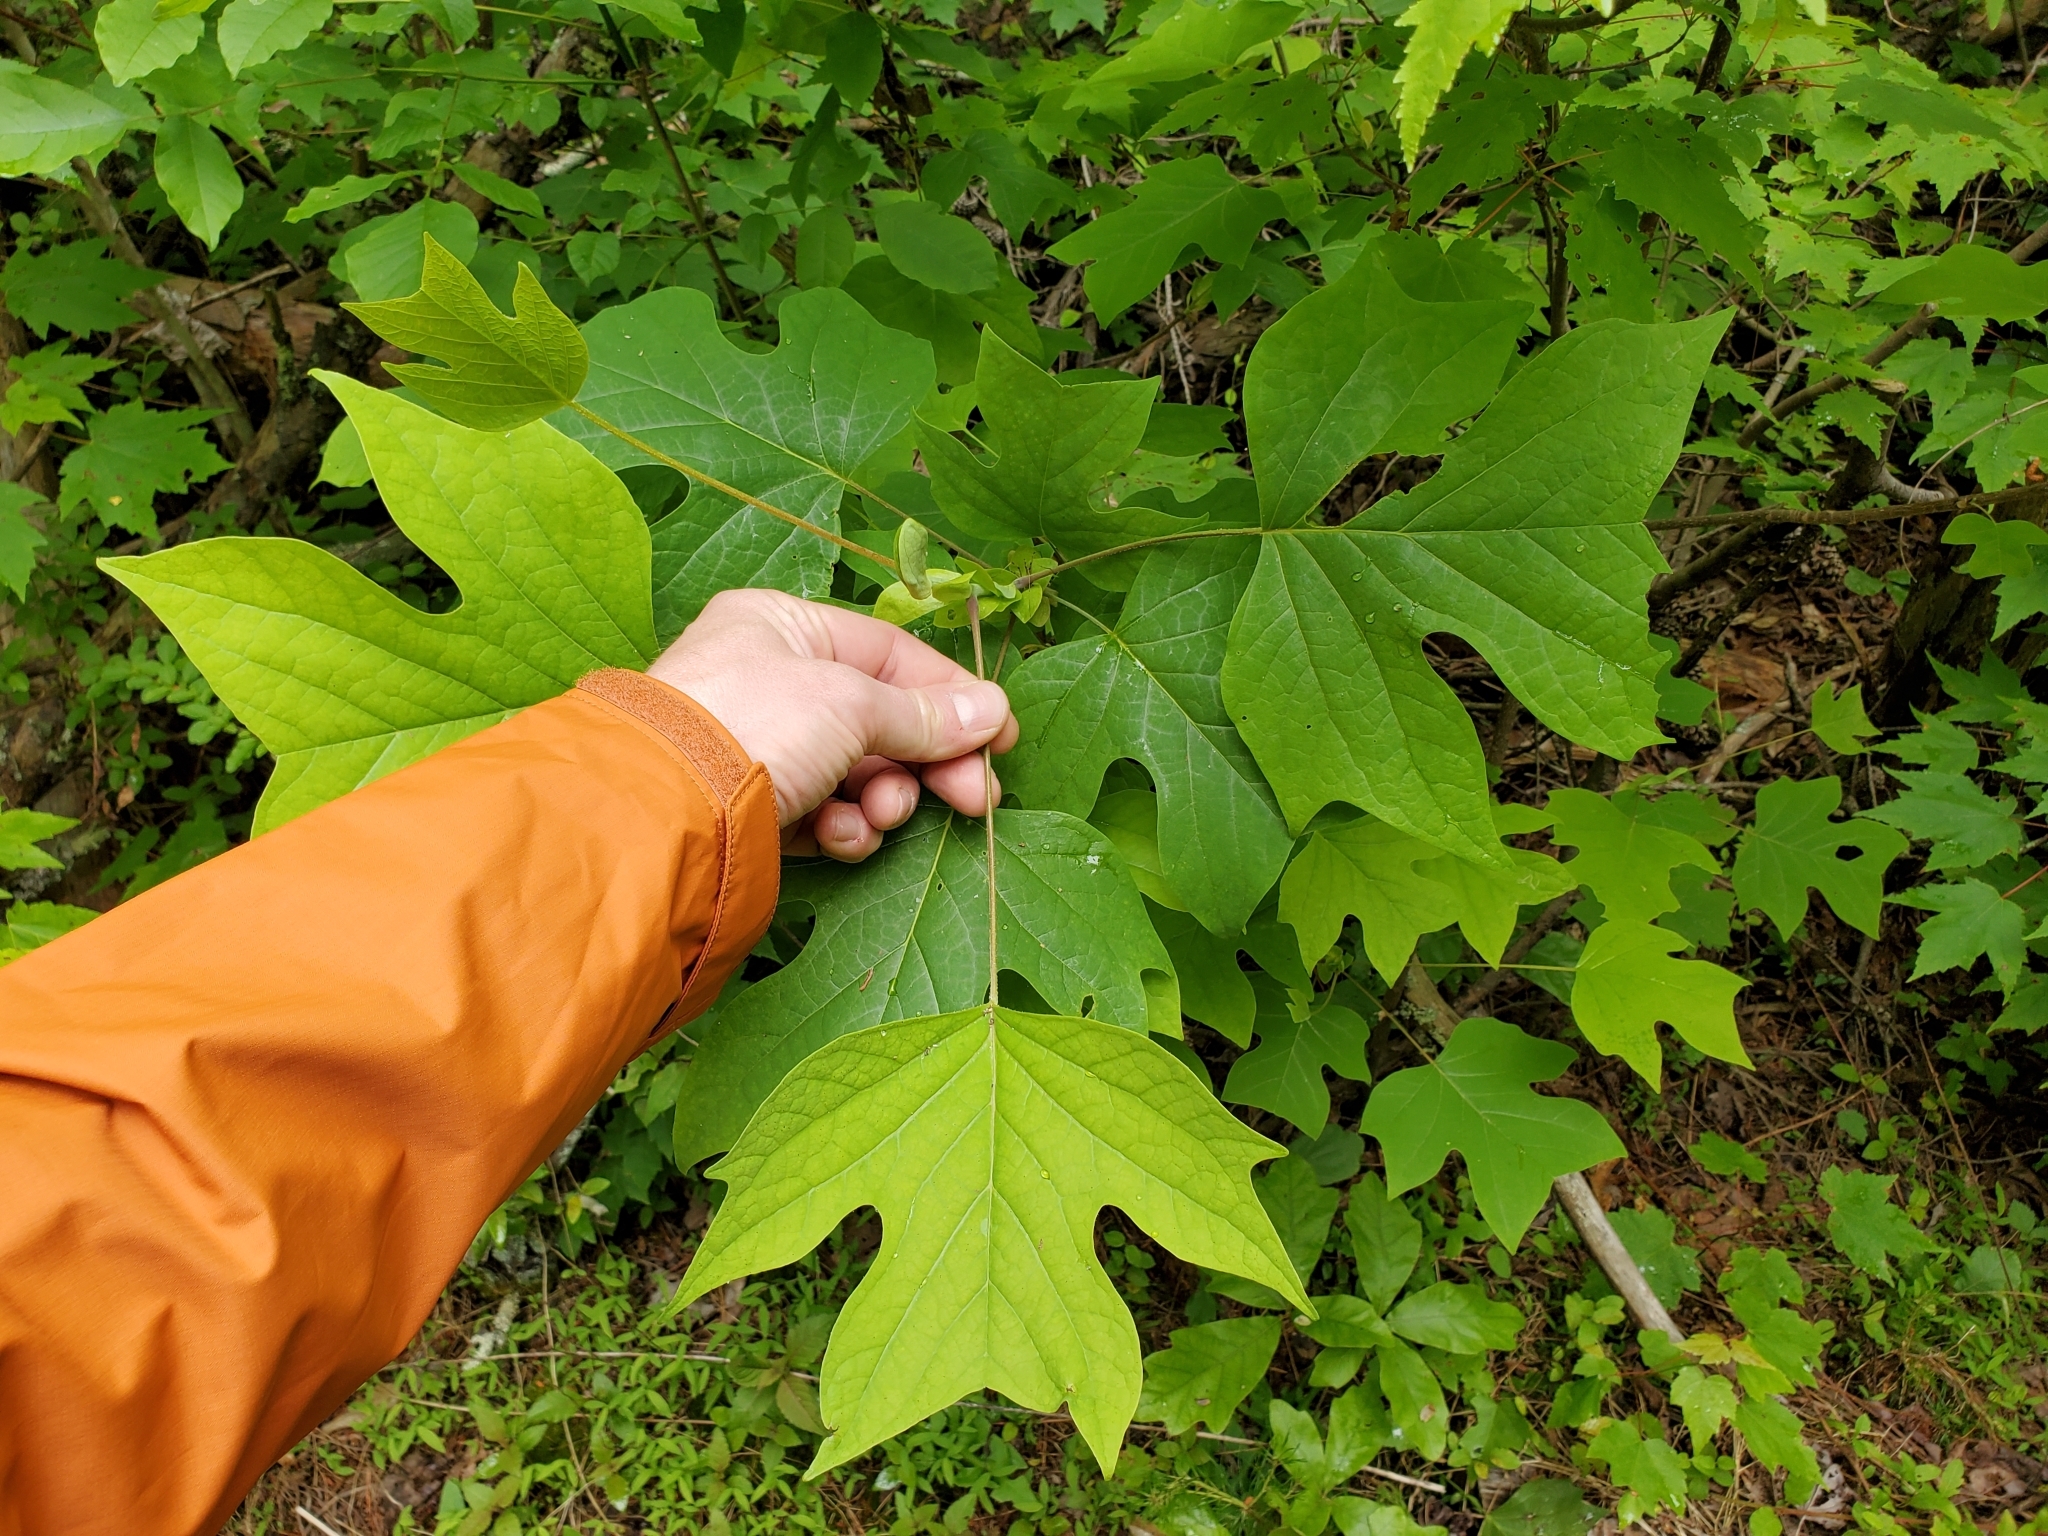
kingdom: Plantae
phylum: Tracheophyta
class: Magnoliopsida
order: Magnoliales
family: Magnoliaceae
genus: Liriodendron
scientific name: Liriodendron tulipifera
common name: Tulip tree
